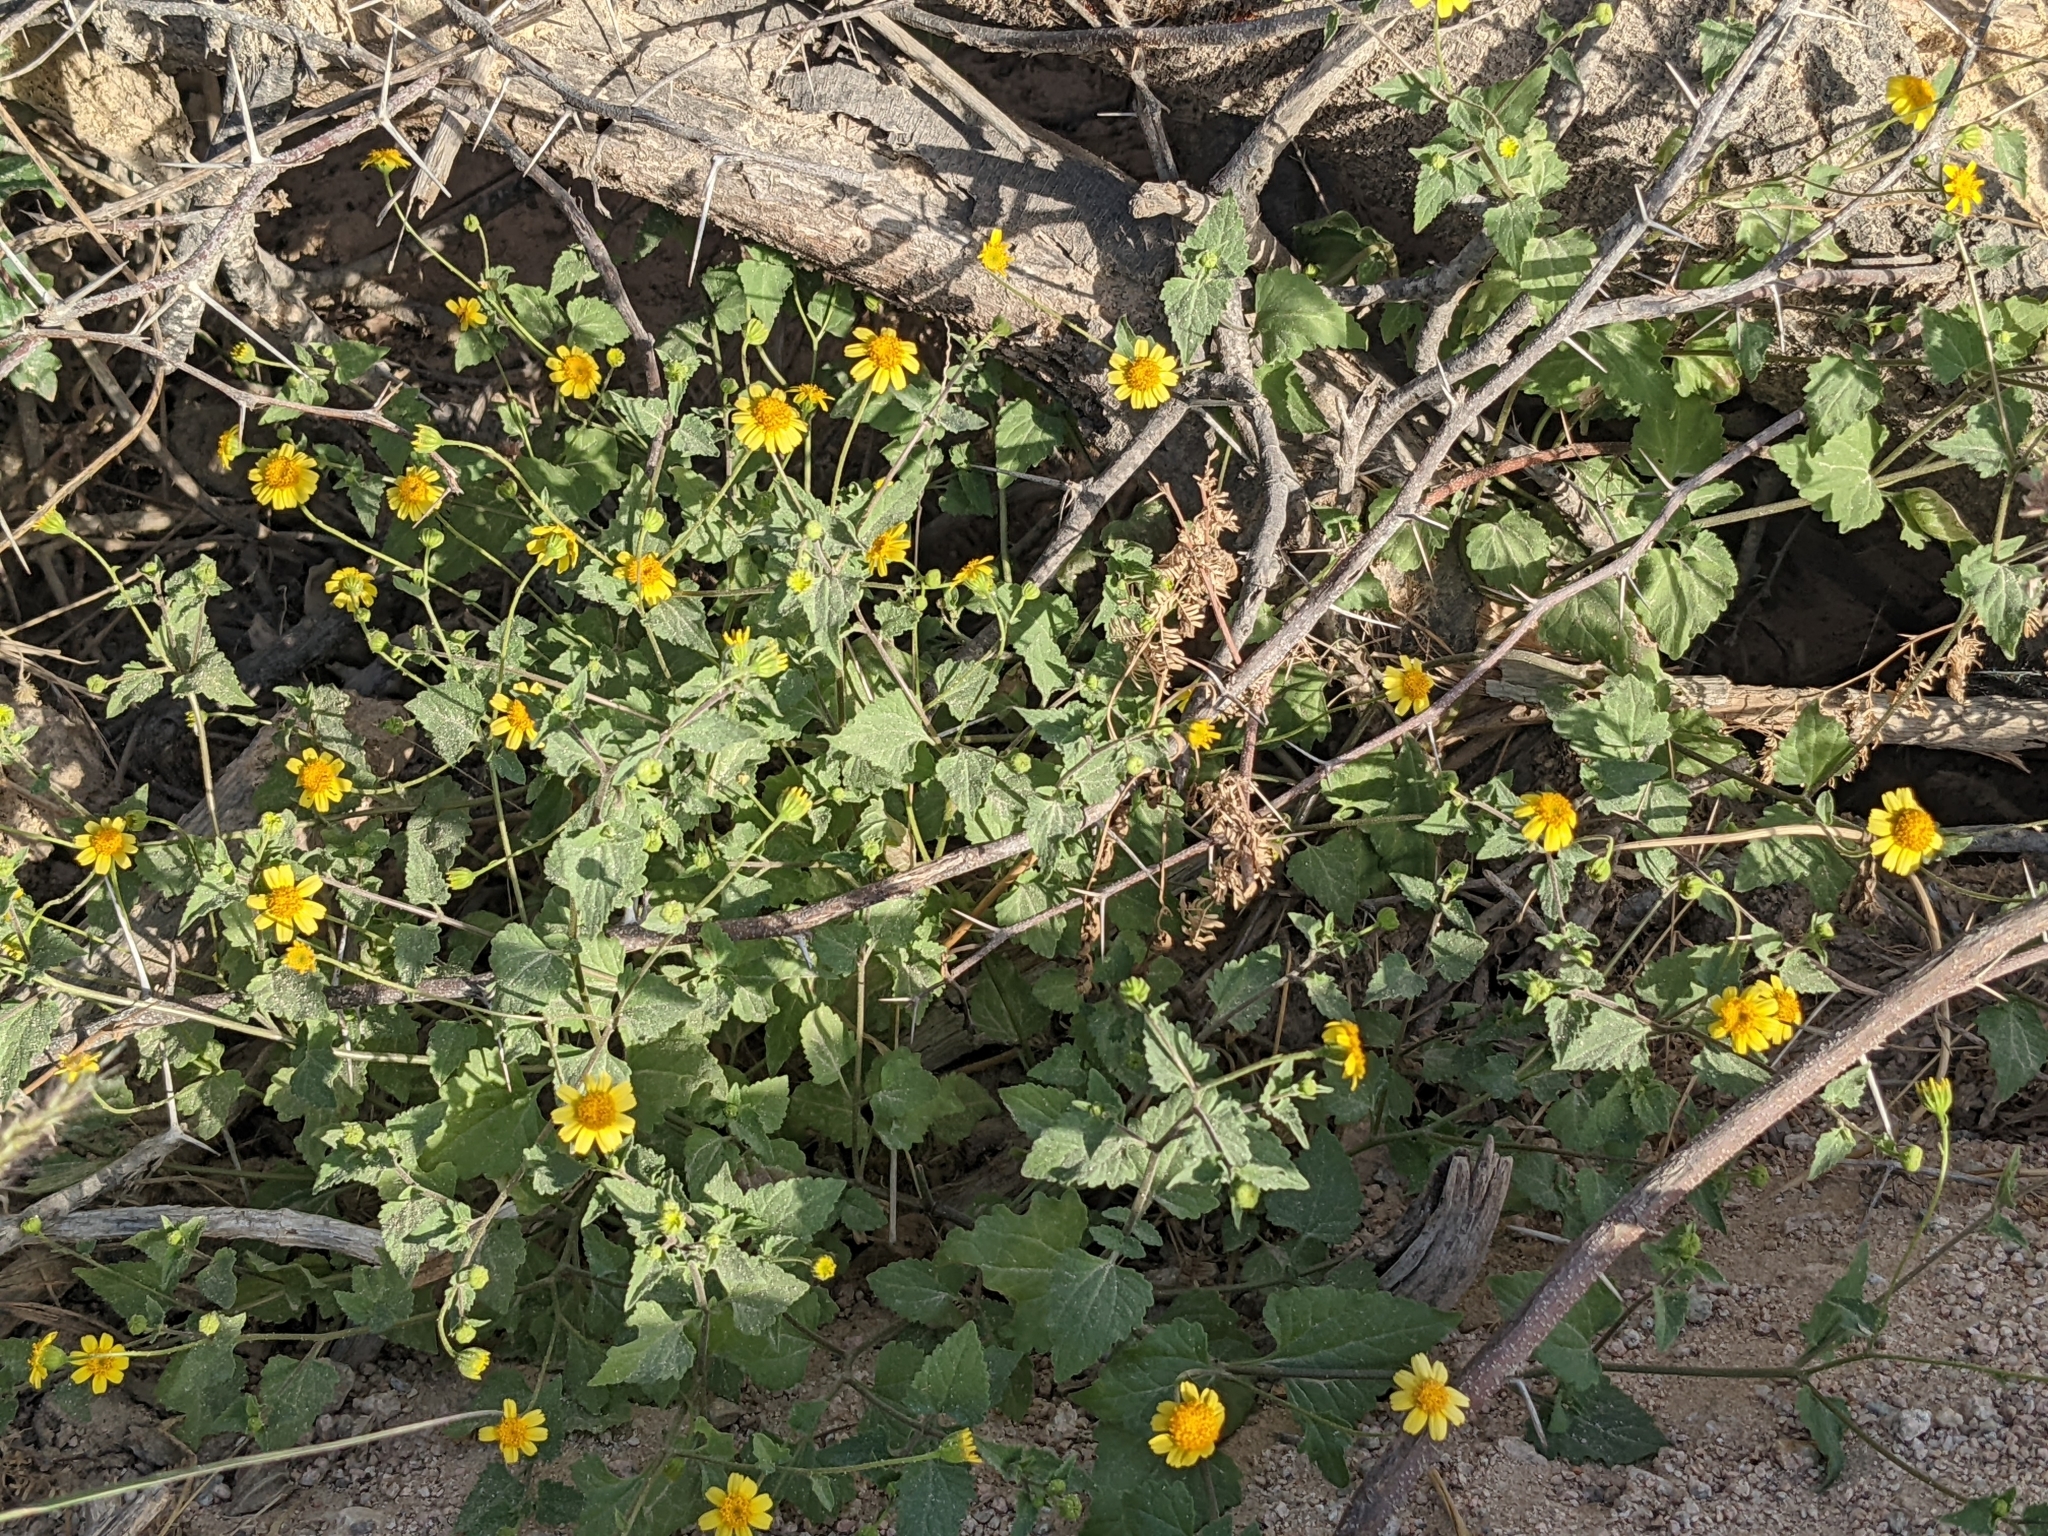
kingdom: Plantae
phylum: Tracheophyta
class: Magnoliopsida
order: Asterales
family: Asteraceae
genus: Perityle
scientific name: Perityle cuneata
